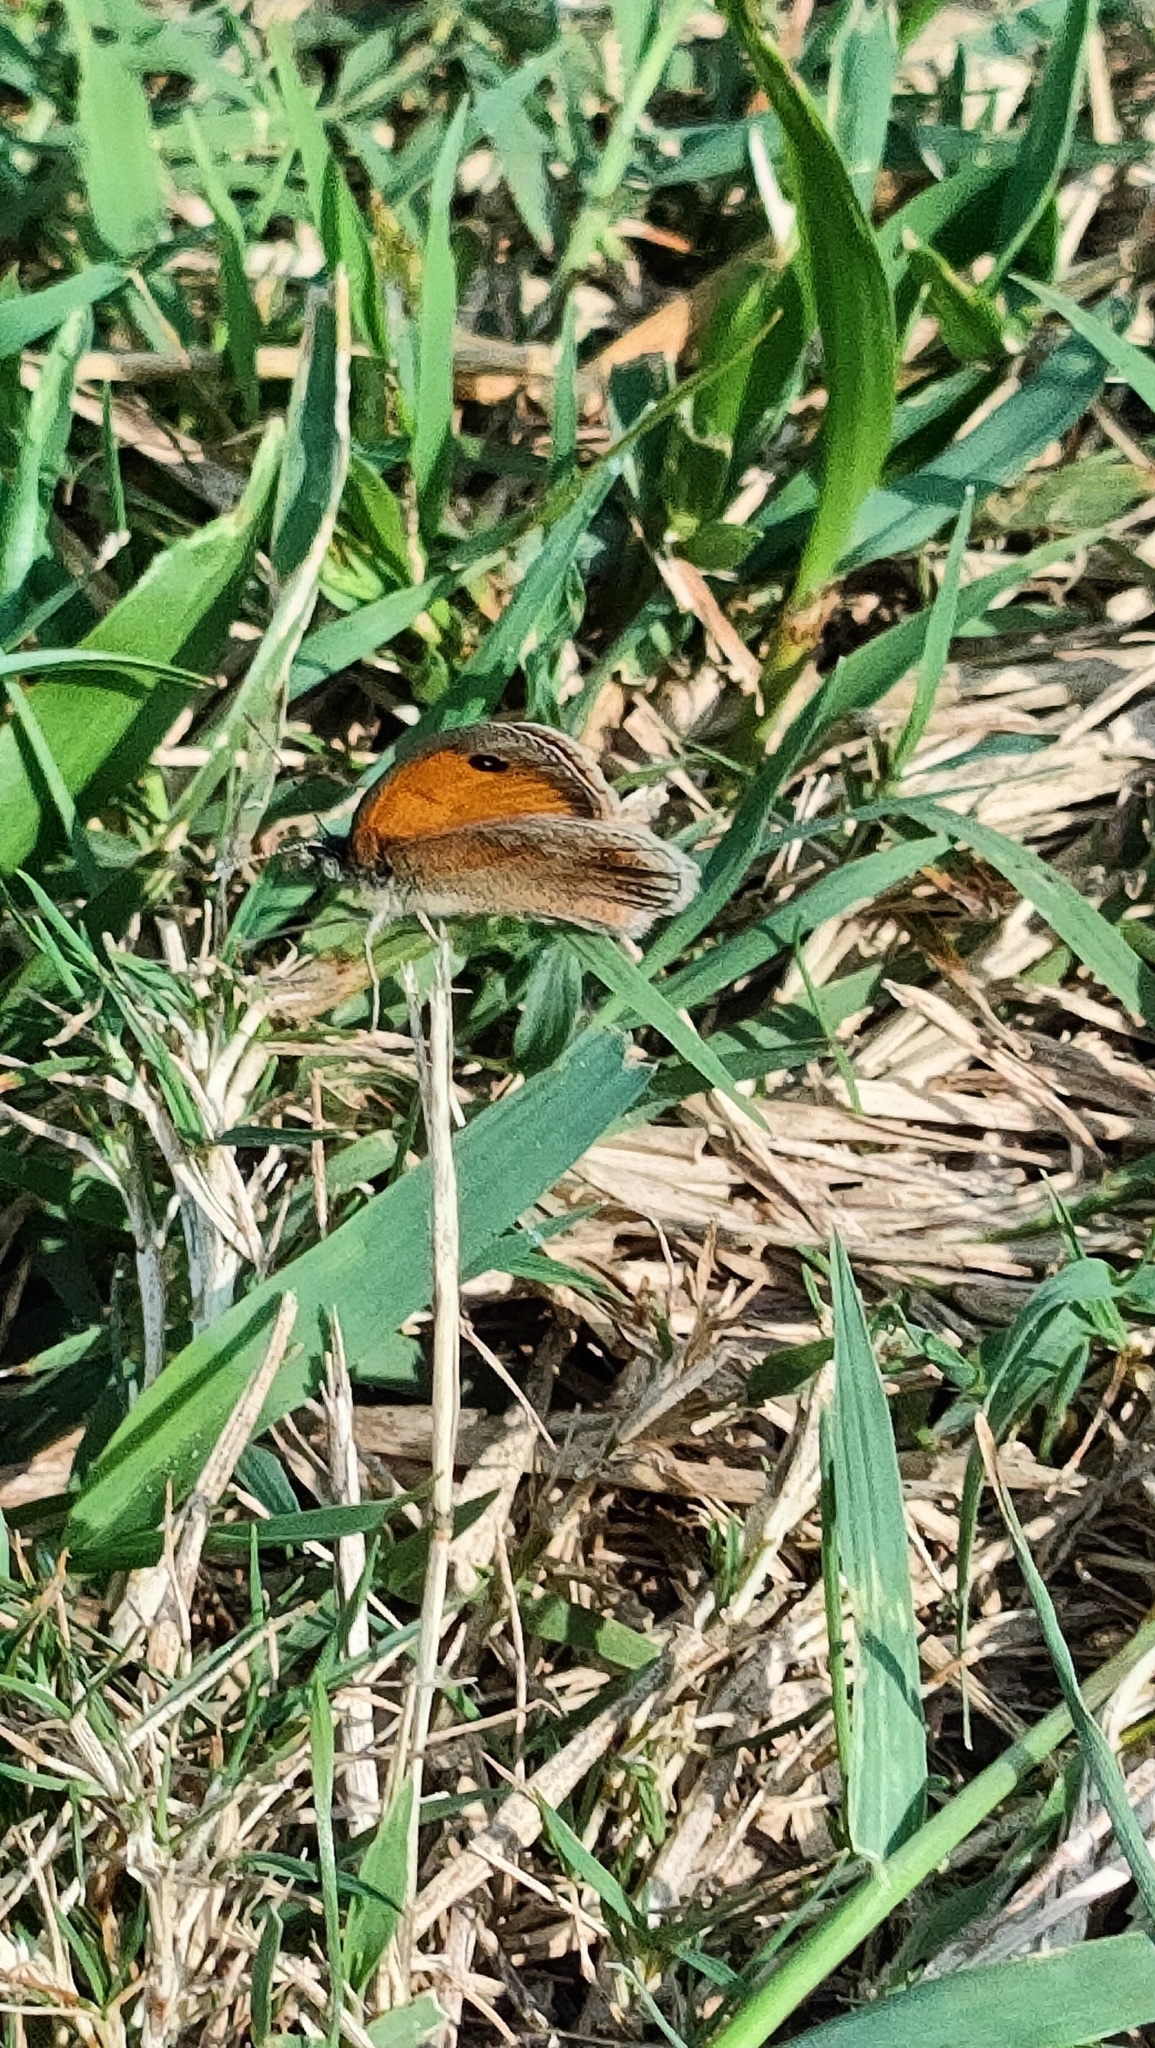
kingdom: Animalia
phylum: Arthropoda
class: Insecta
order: Lepidoptera
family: Nymphalidae
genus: Coenonympha
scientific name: Coenonympha pamphilus
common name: Small heath
